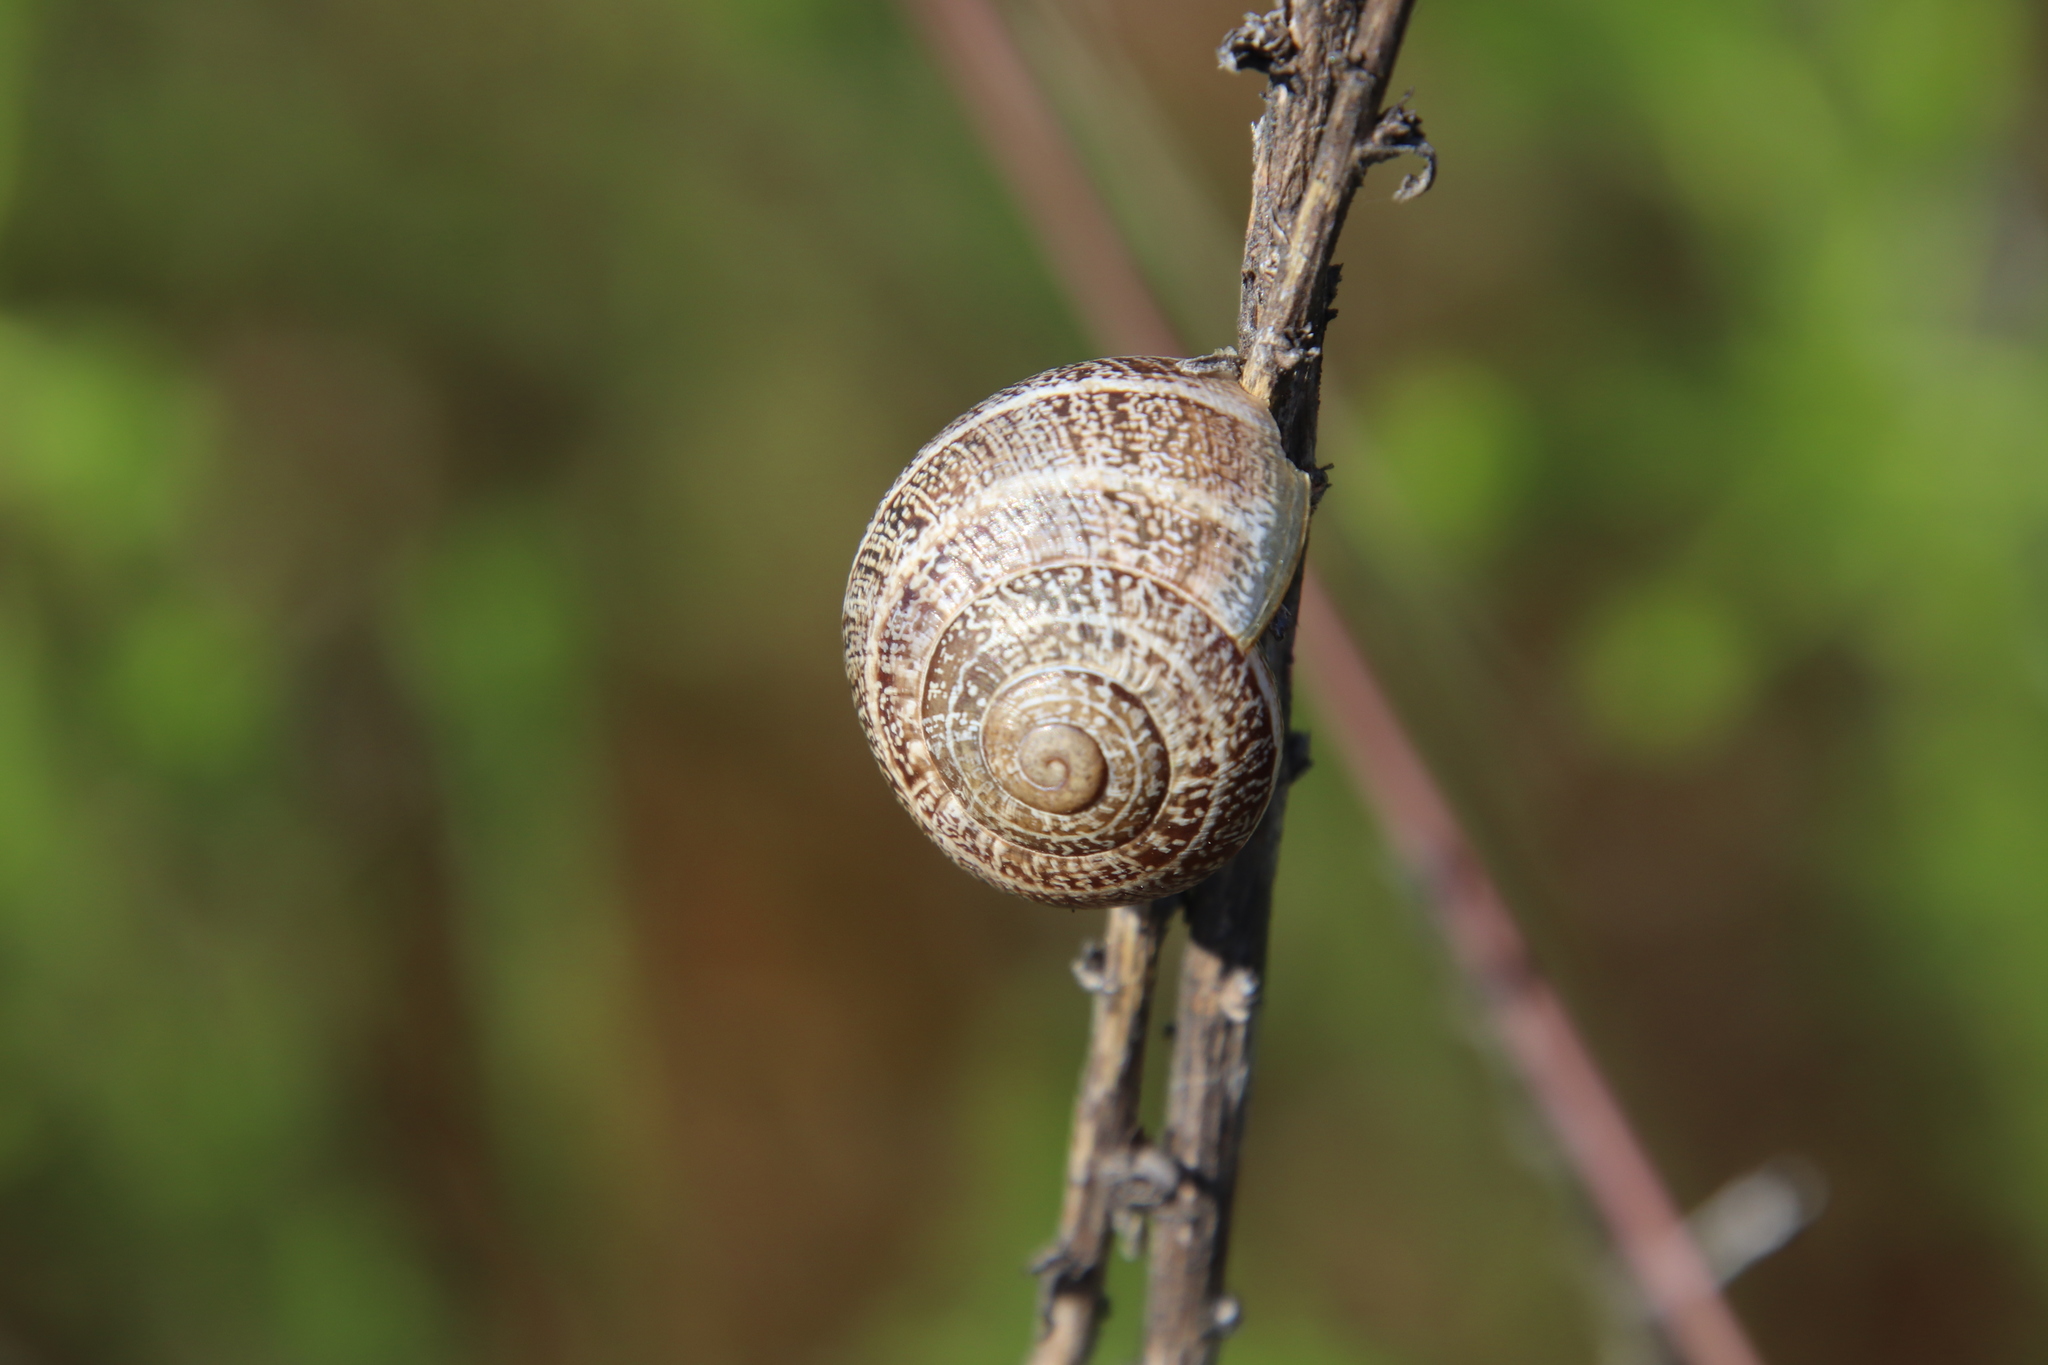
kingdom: Animalia
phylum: Mollusca
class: Gastropoda
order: Stylommatophora
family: Helicidae
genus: Otala
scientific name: Otala lactea
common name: Milk snail
